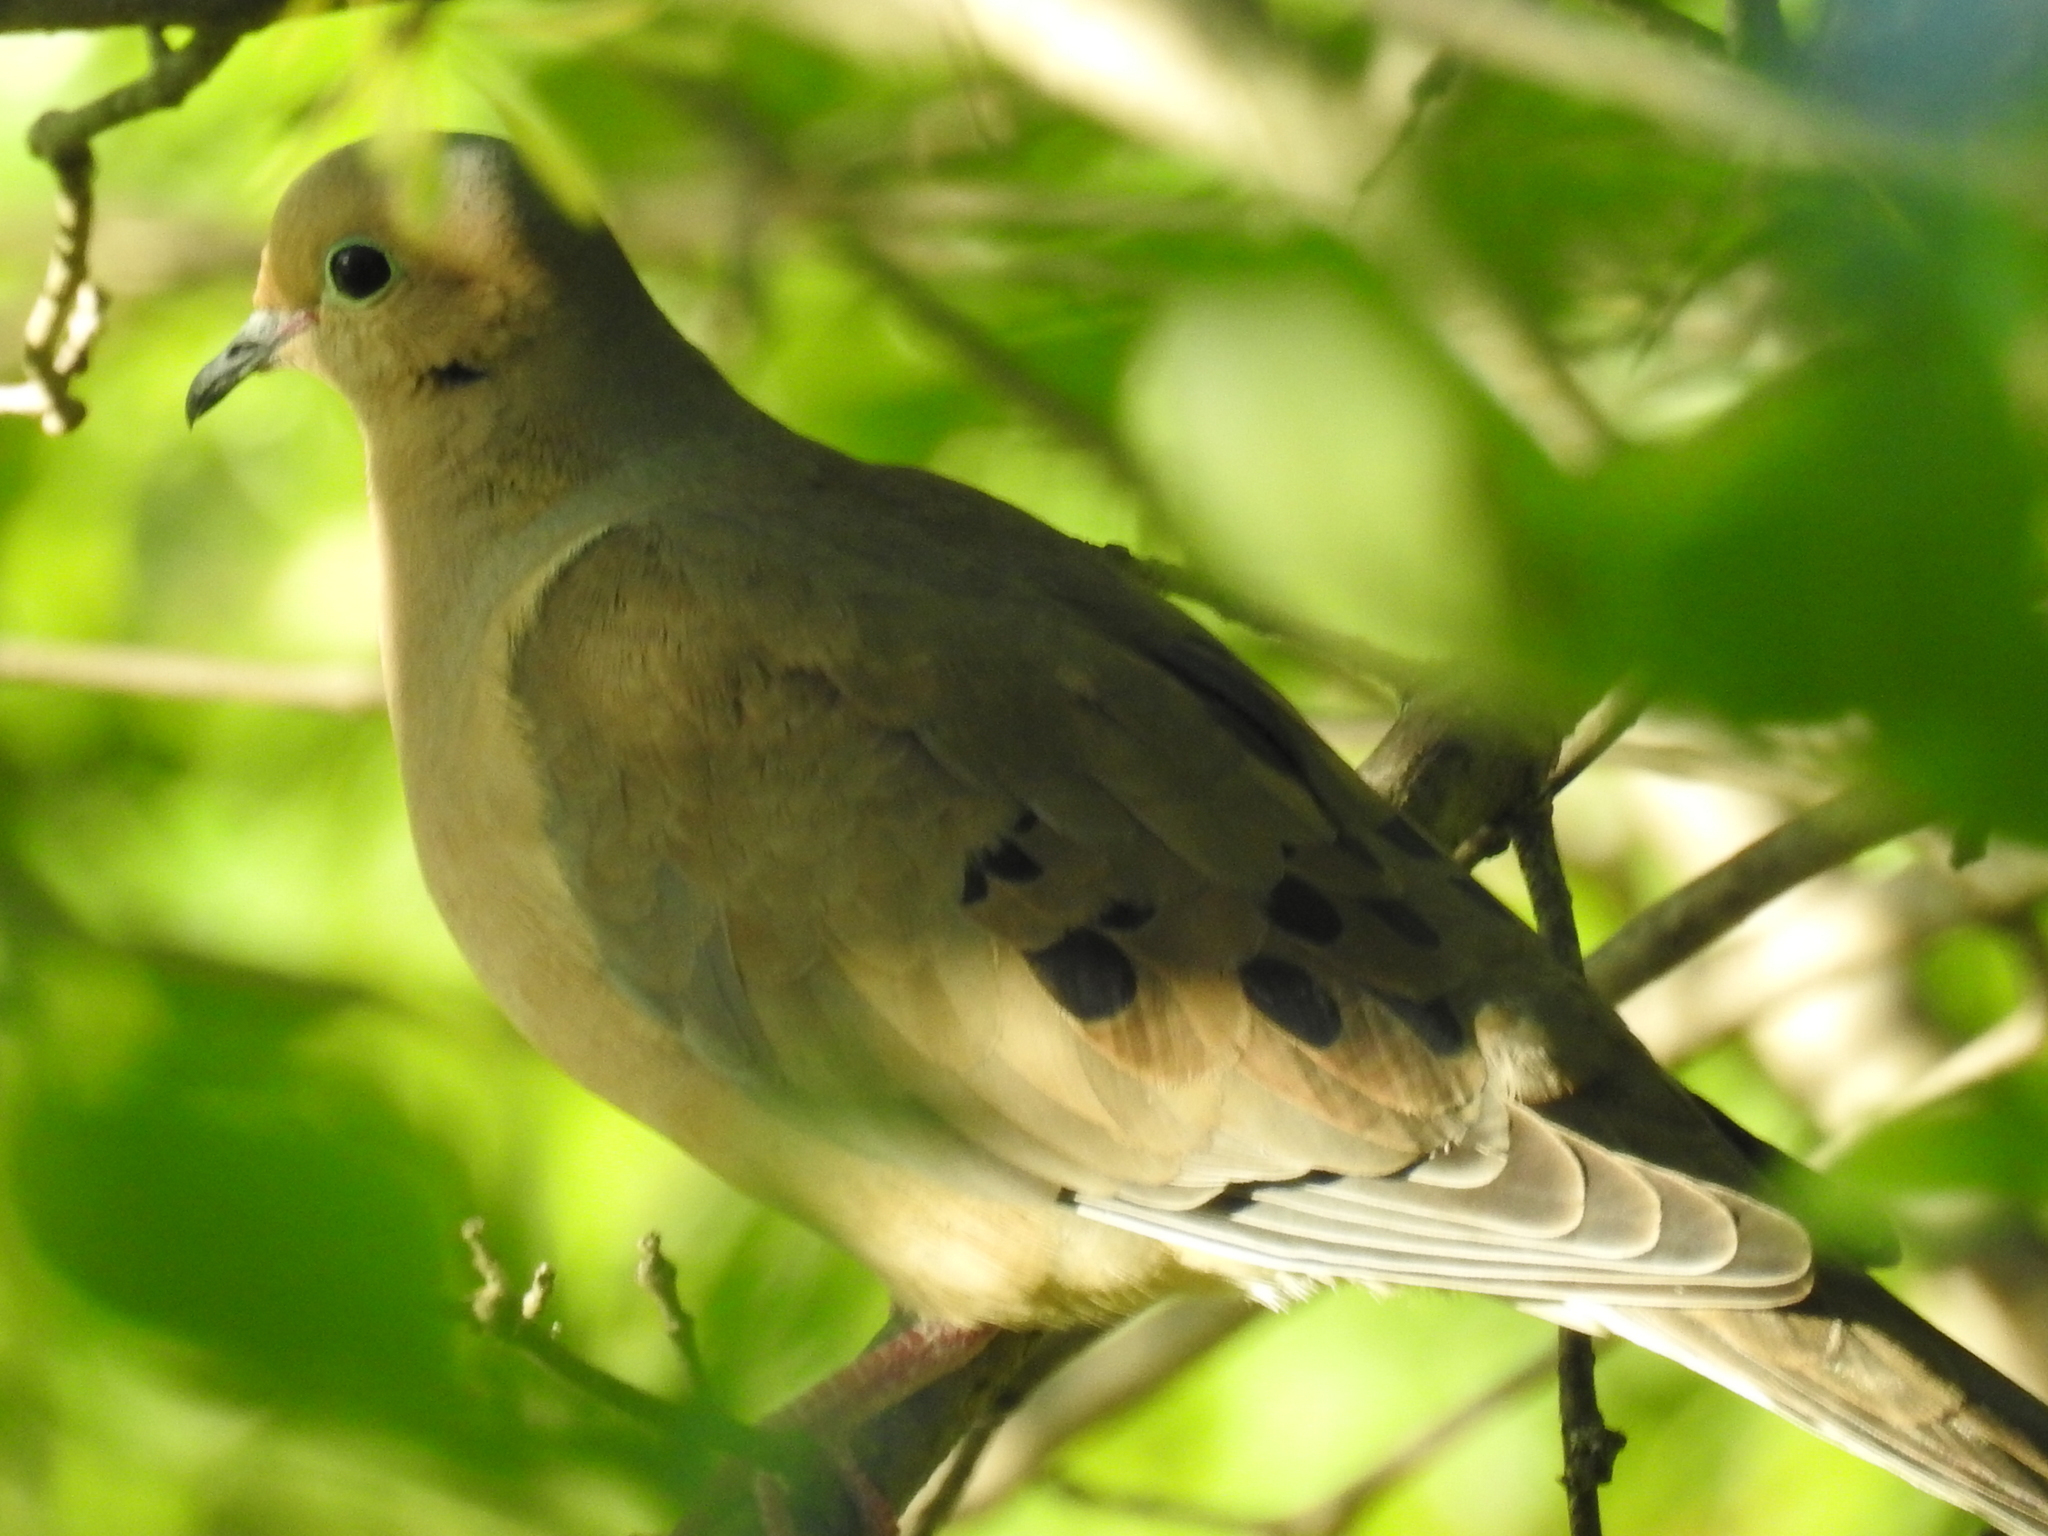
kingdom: Animalia
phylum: Chordata
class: Aves
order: Columbiformes
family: Columbidae
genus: Zenaida
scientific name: Zenaida macroura
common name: Mourning dove
